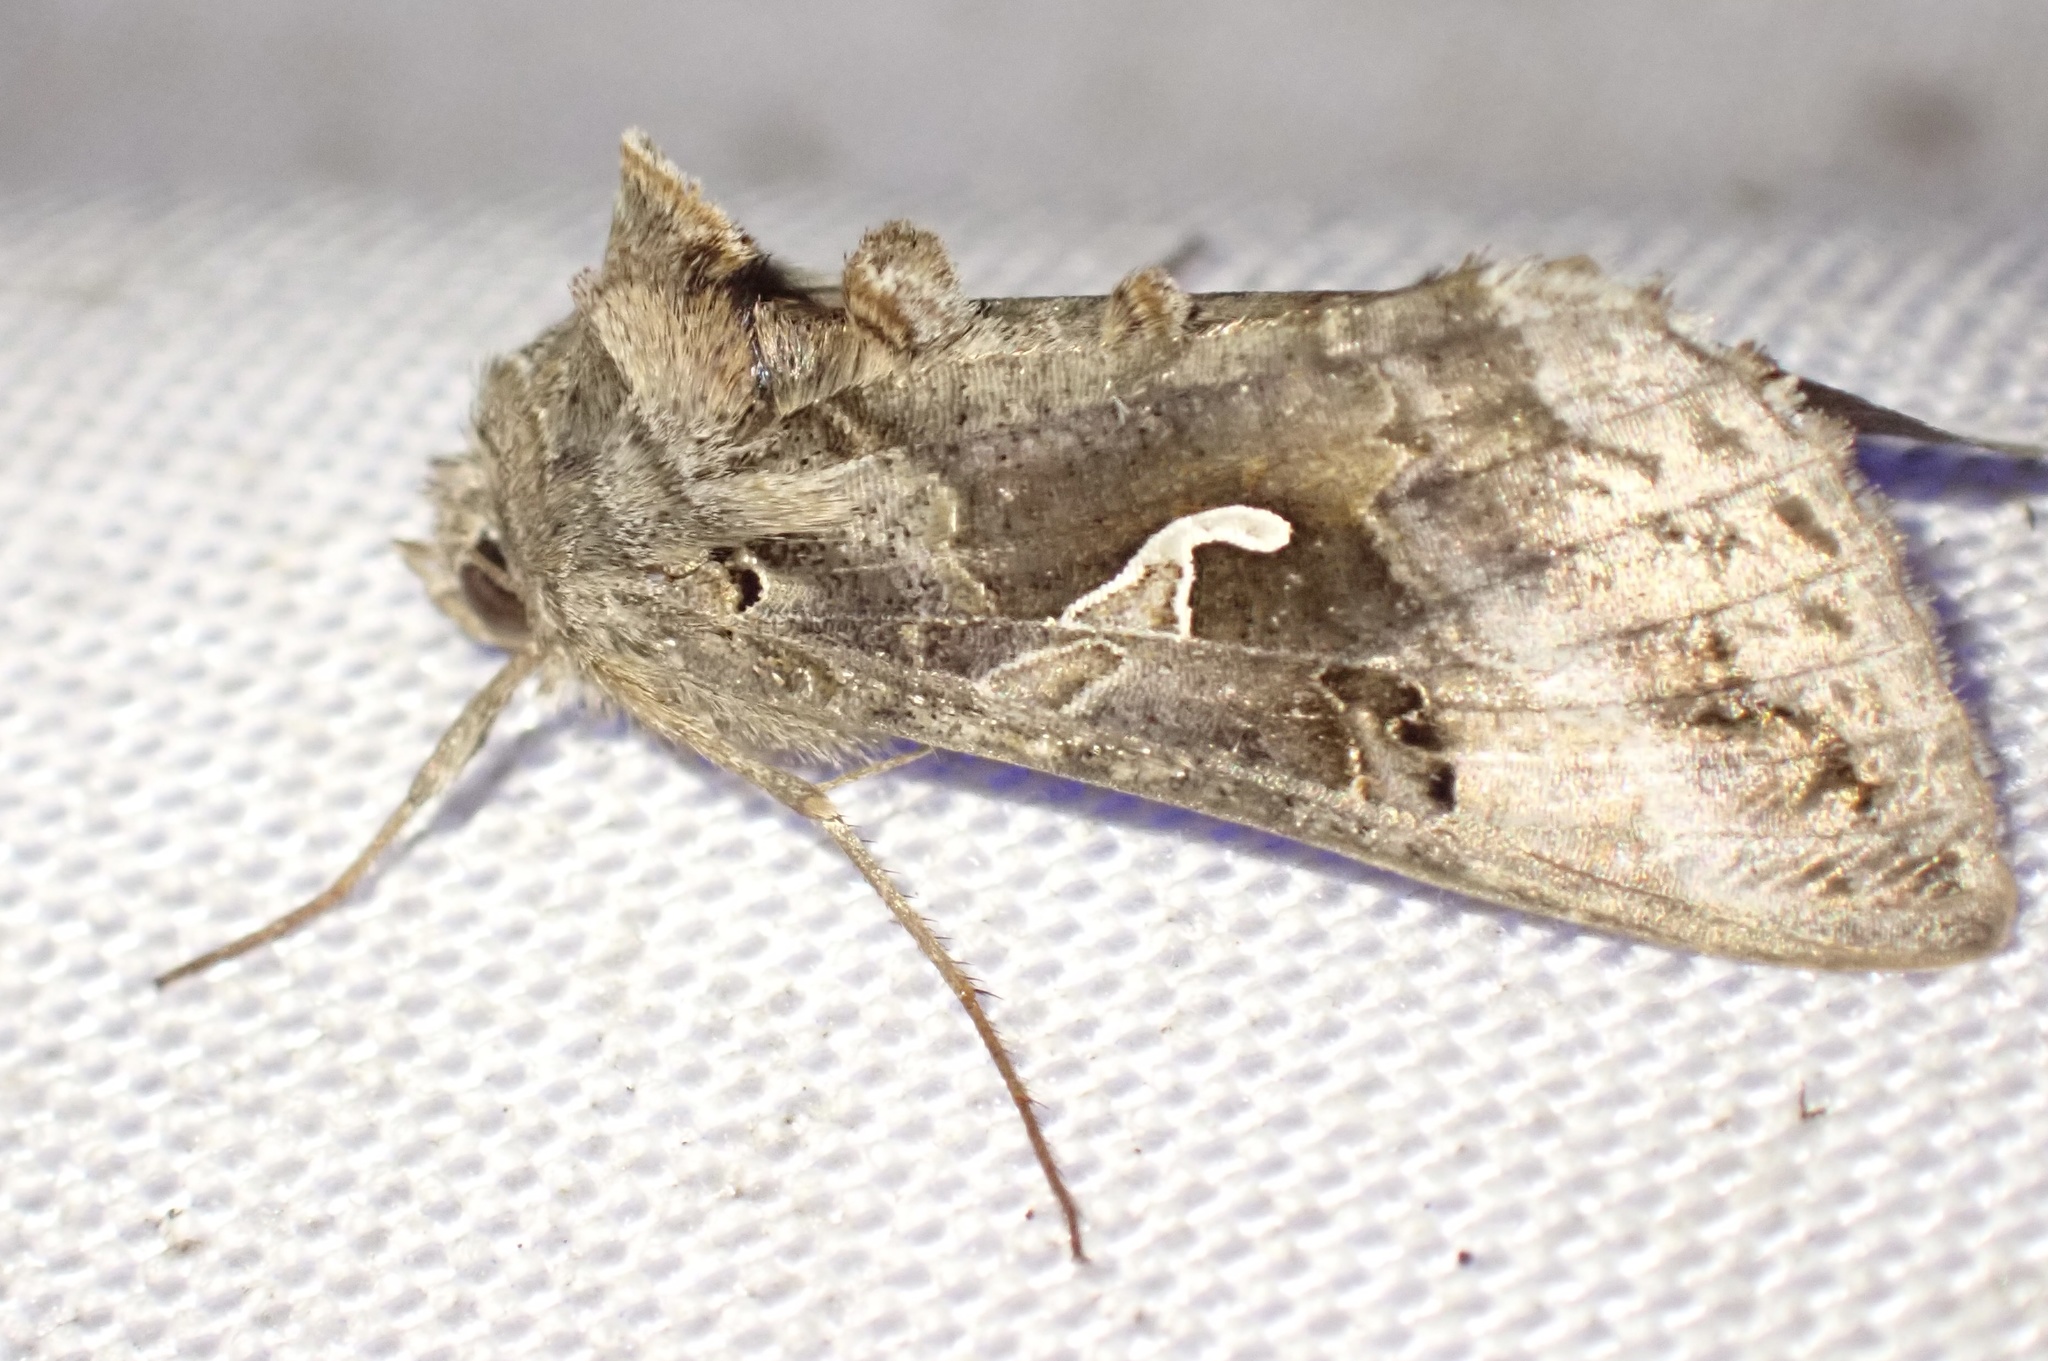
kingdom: Animalia
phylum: Arthropoda
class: Insecta
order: Lepidoptera
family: Noctuidae
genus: Autographa
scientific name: Autographa gamma
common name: Silver y
